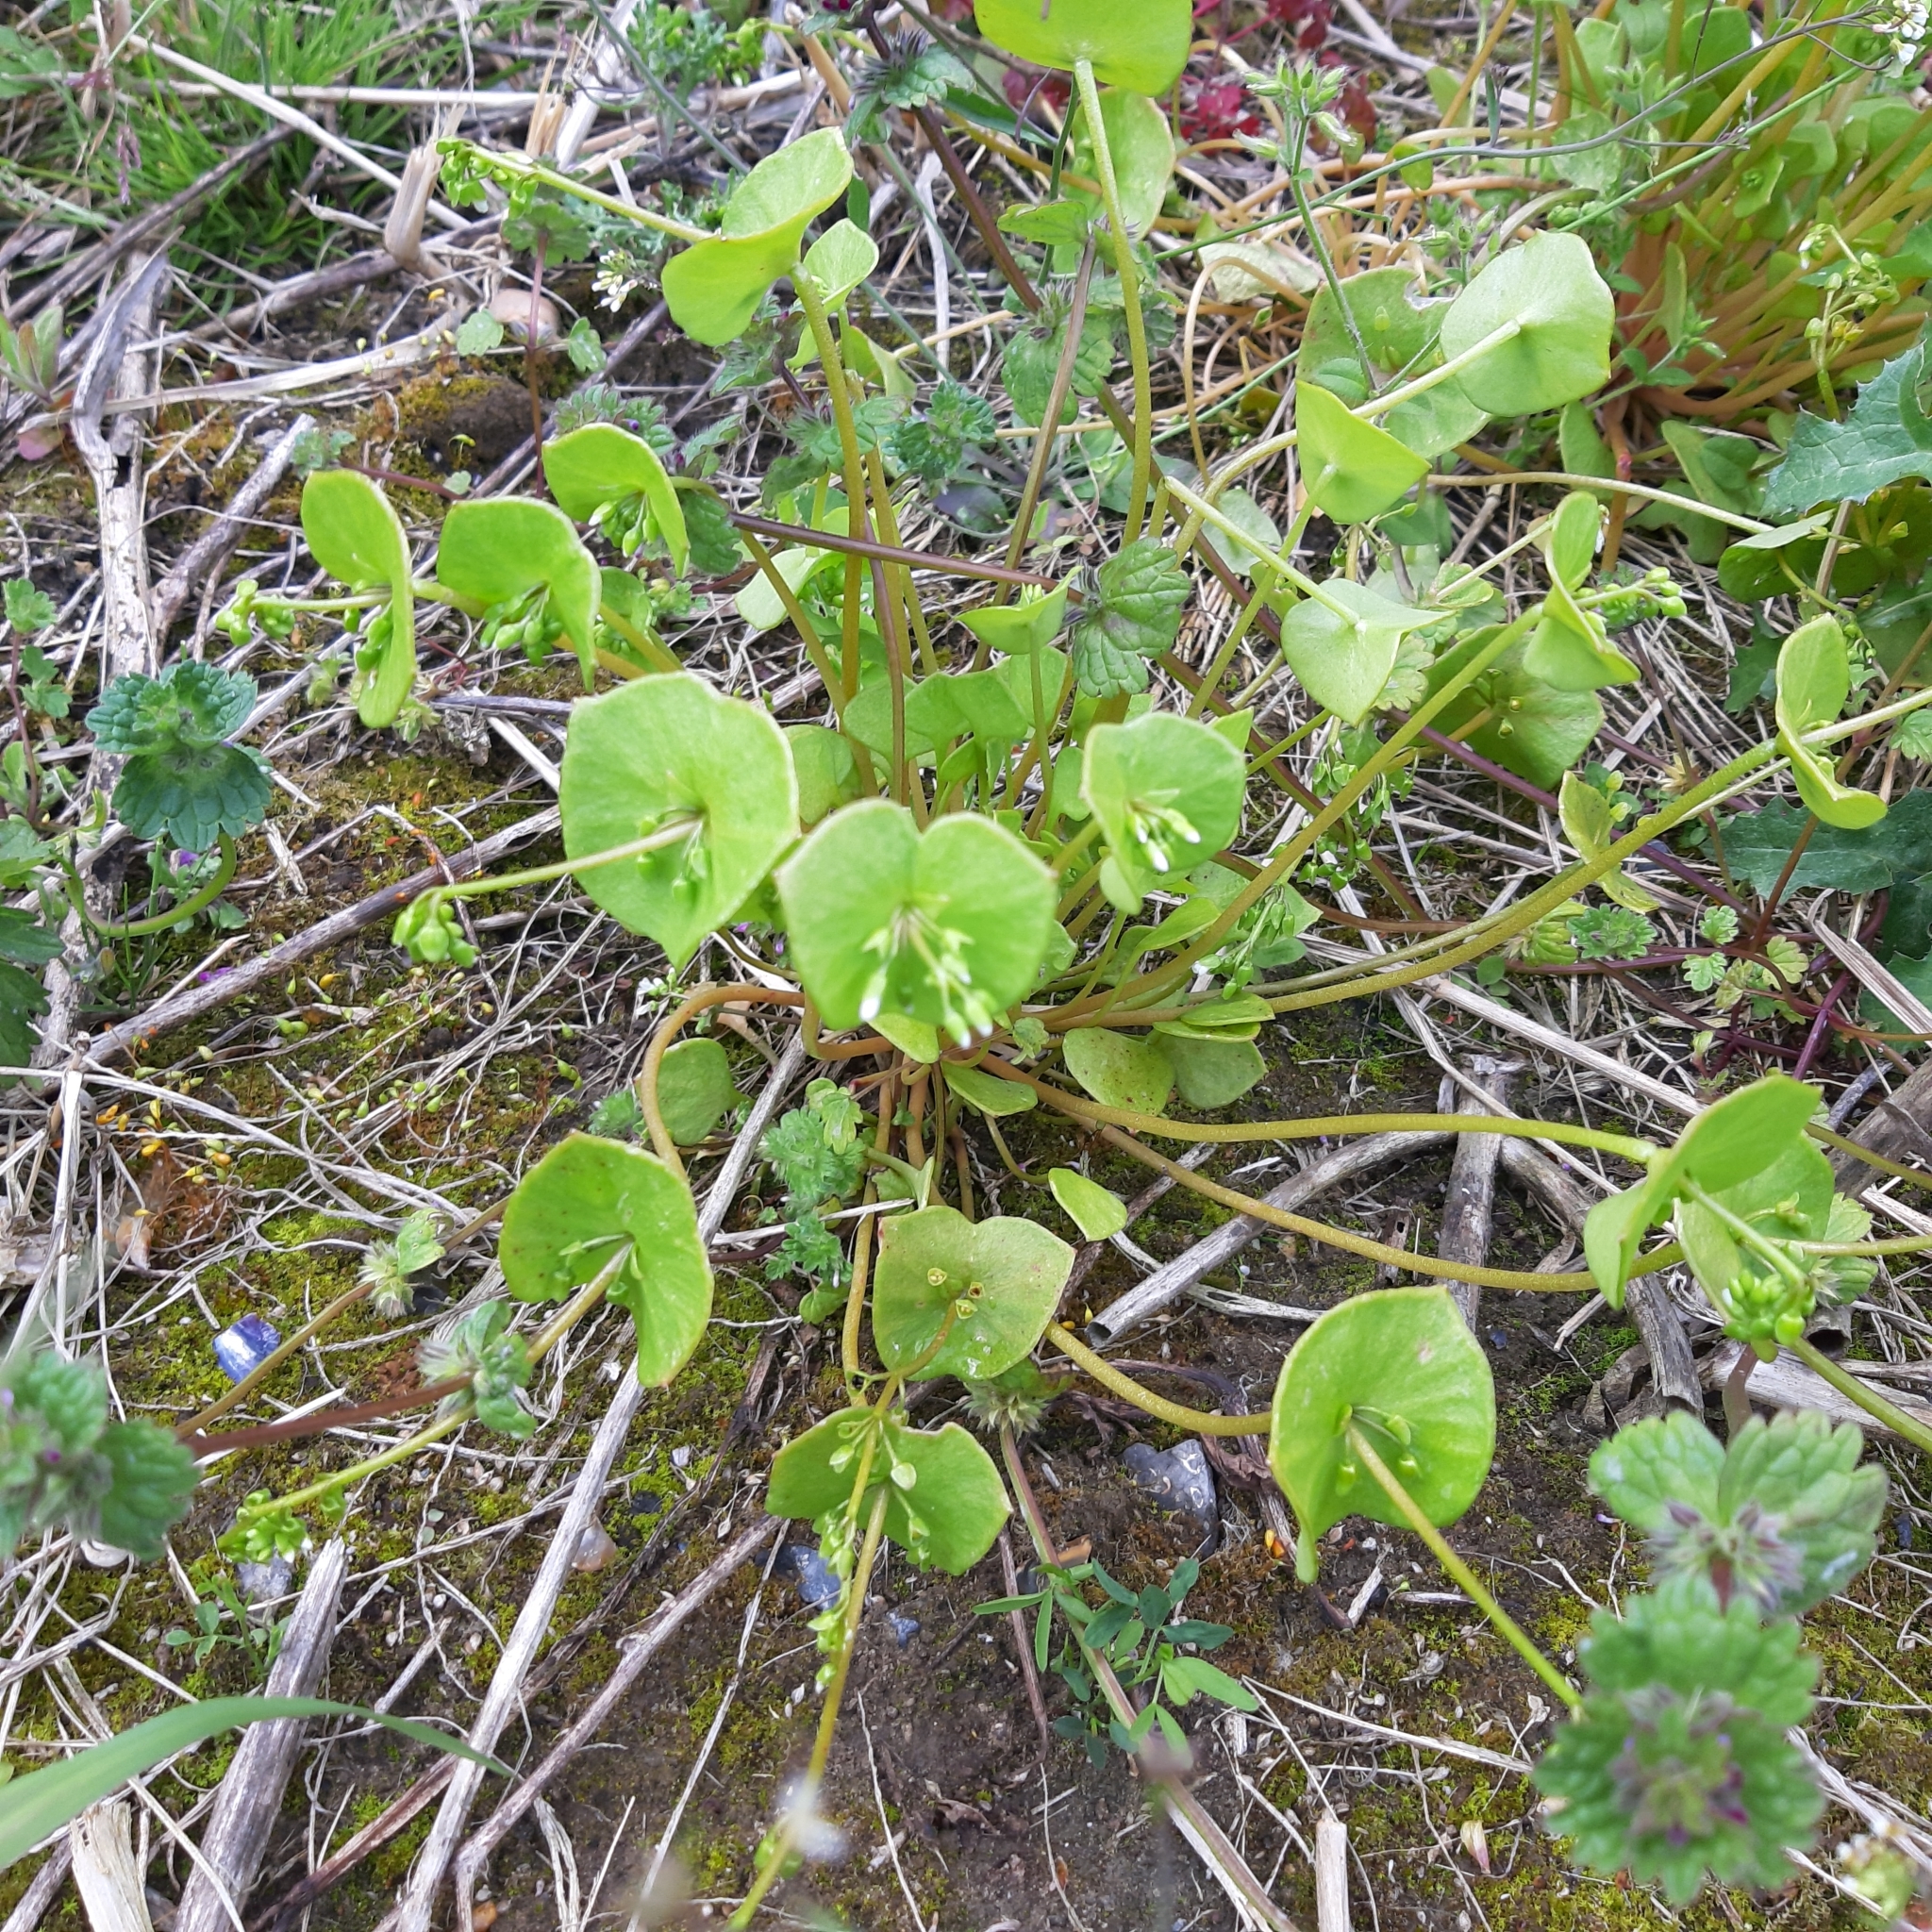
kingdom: Plantae
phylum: Tracheophyta
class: Magnoliopsida
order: Caryophyllales
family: Montiaceae
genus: Claytonia
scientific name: Claytonia perfoliata
